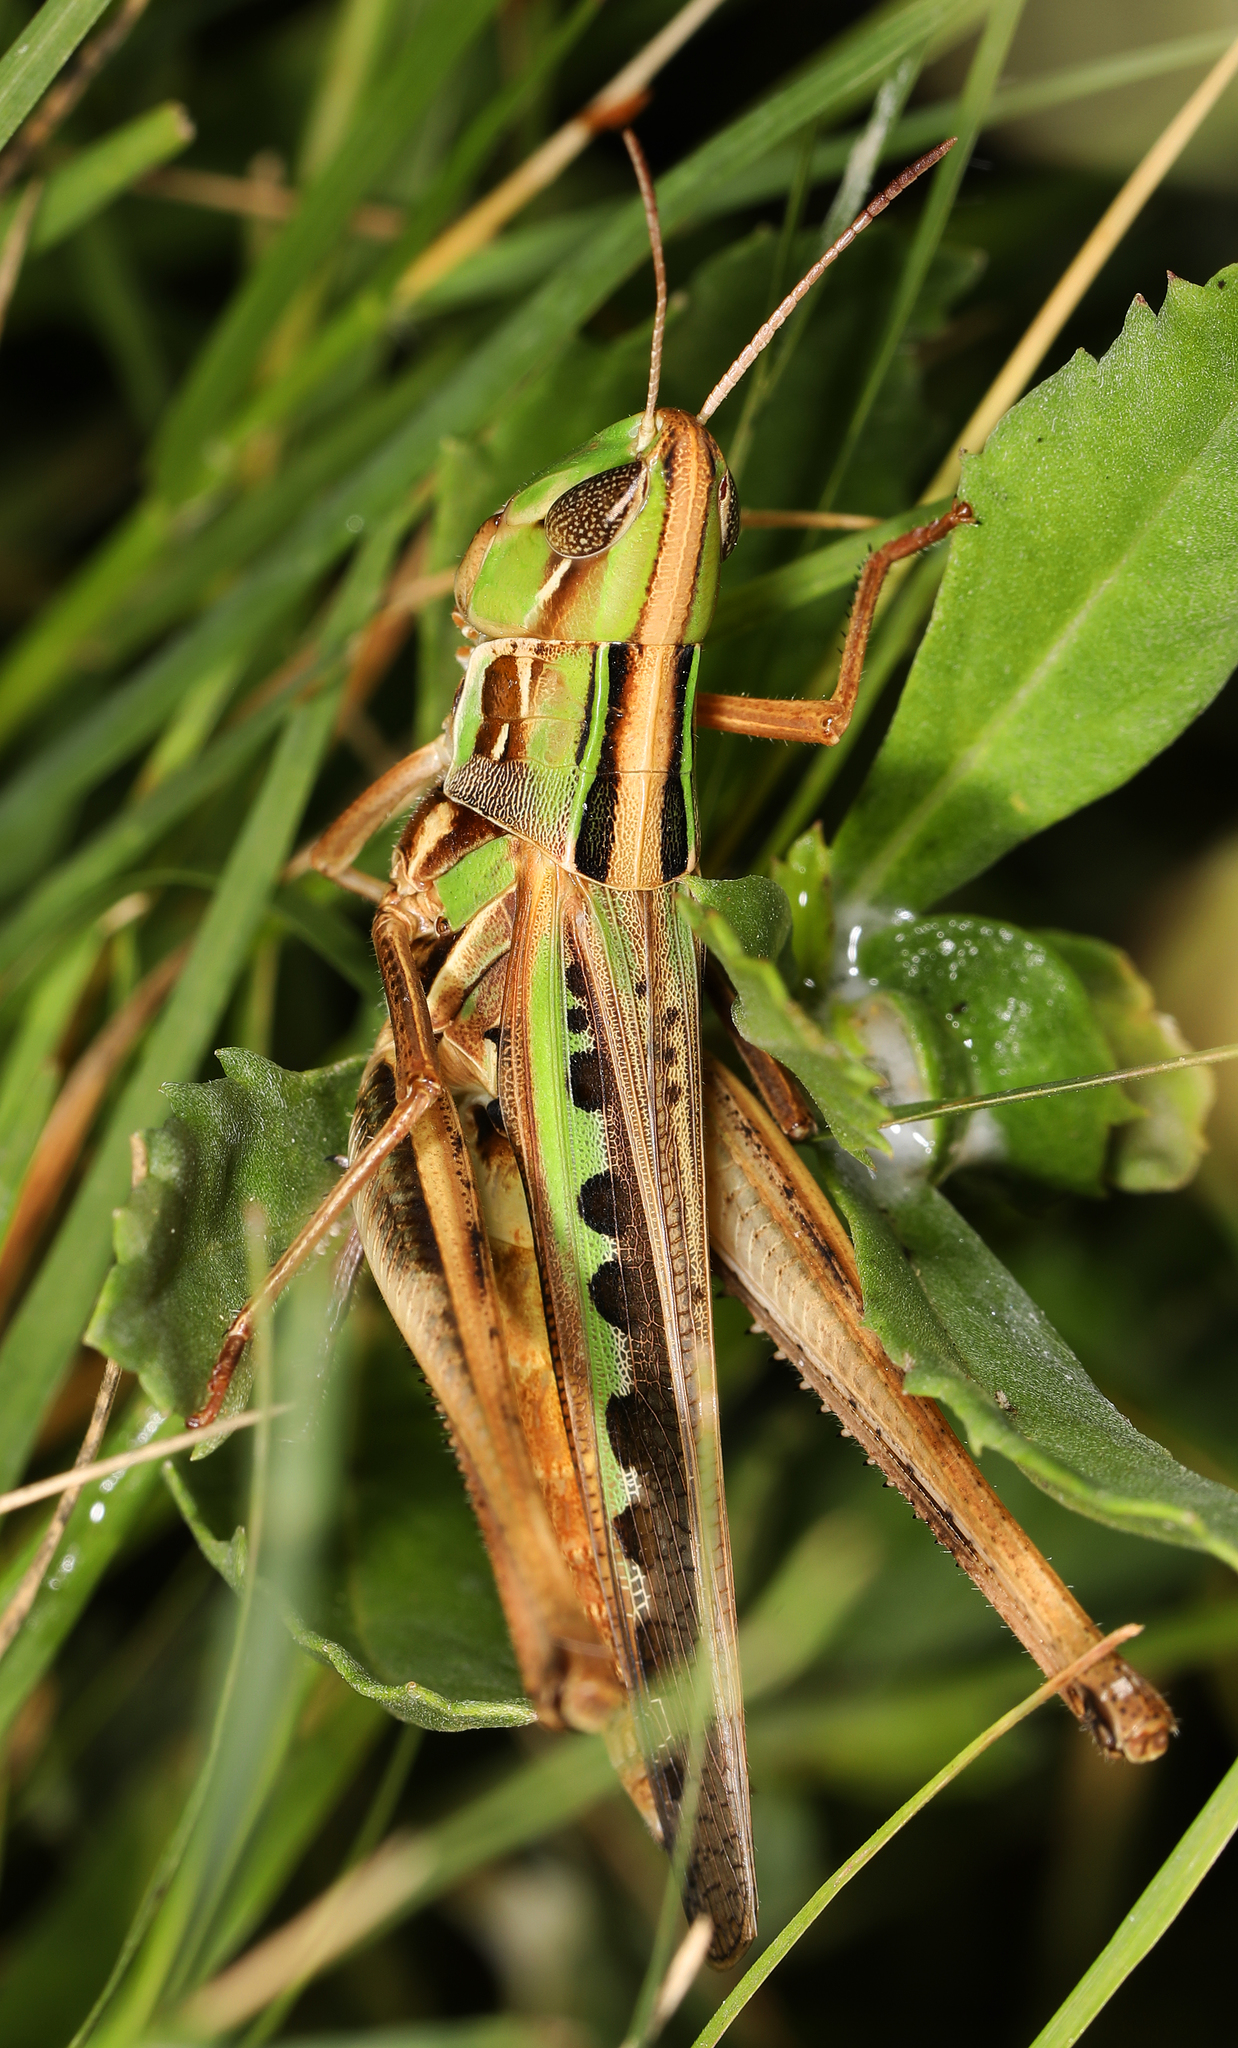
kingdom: Animalia
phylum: Arthropoda
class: Insecta
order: Orthoptera
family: Acrididae
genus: Syrbula
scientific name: Syrbula admirabilis
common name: Handsome grasshopper
